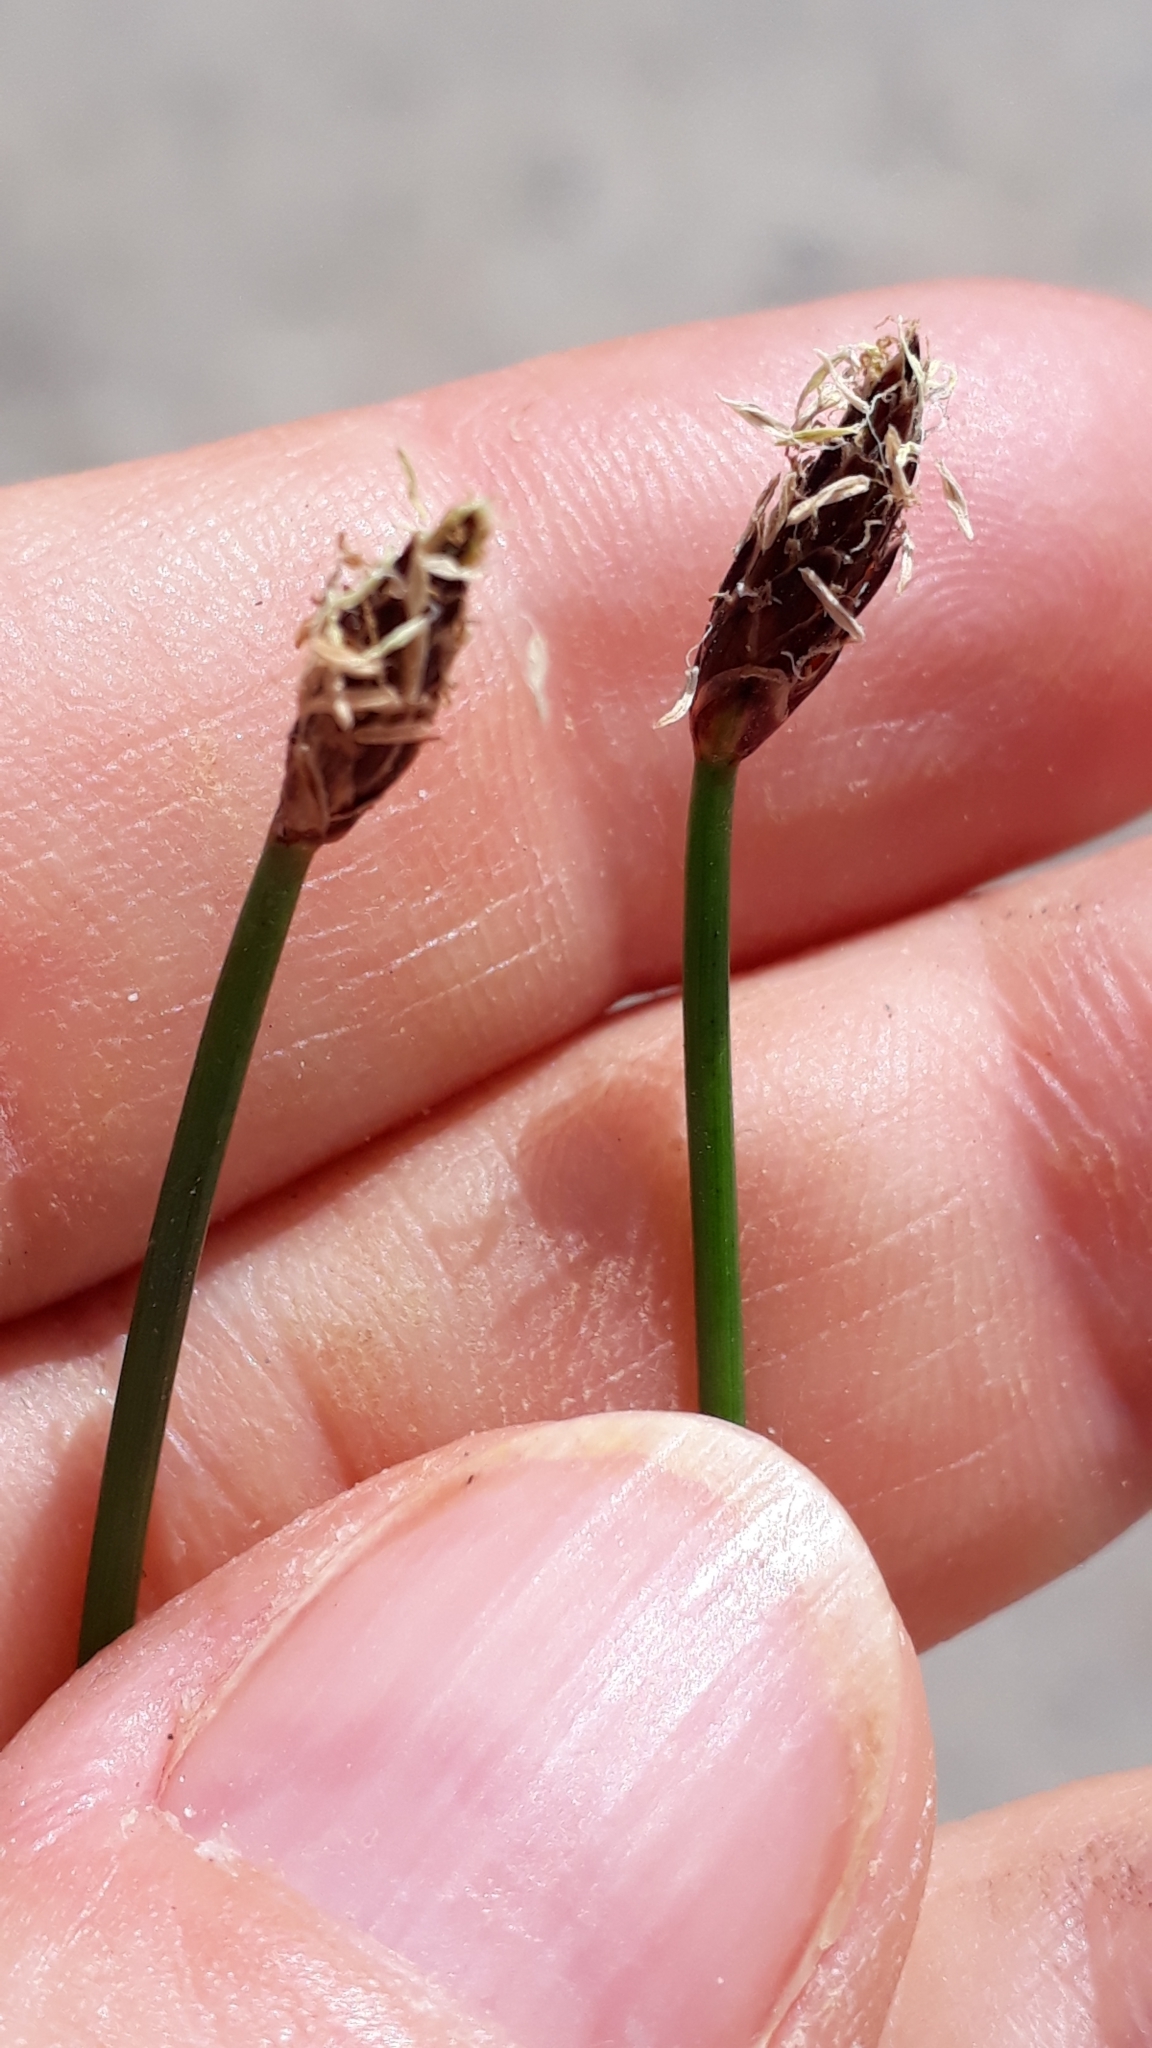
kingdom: Plantae
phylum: Tracheophyta
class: Liliopsida
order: Poales
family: Cyperaceae
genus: Eleocharis
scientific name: Eleocharis palustris
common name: Common spike-rush
